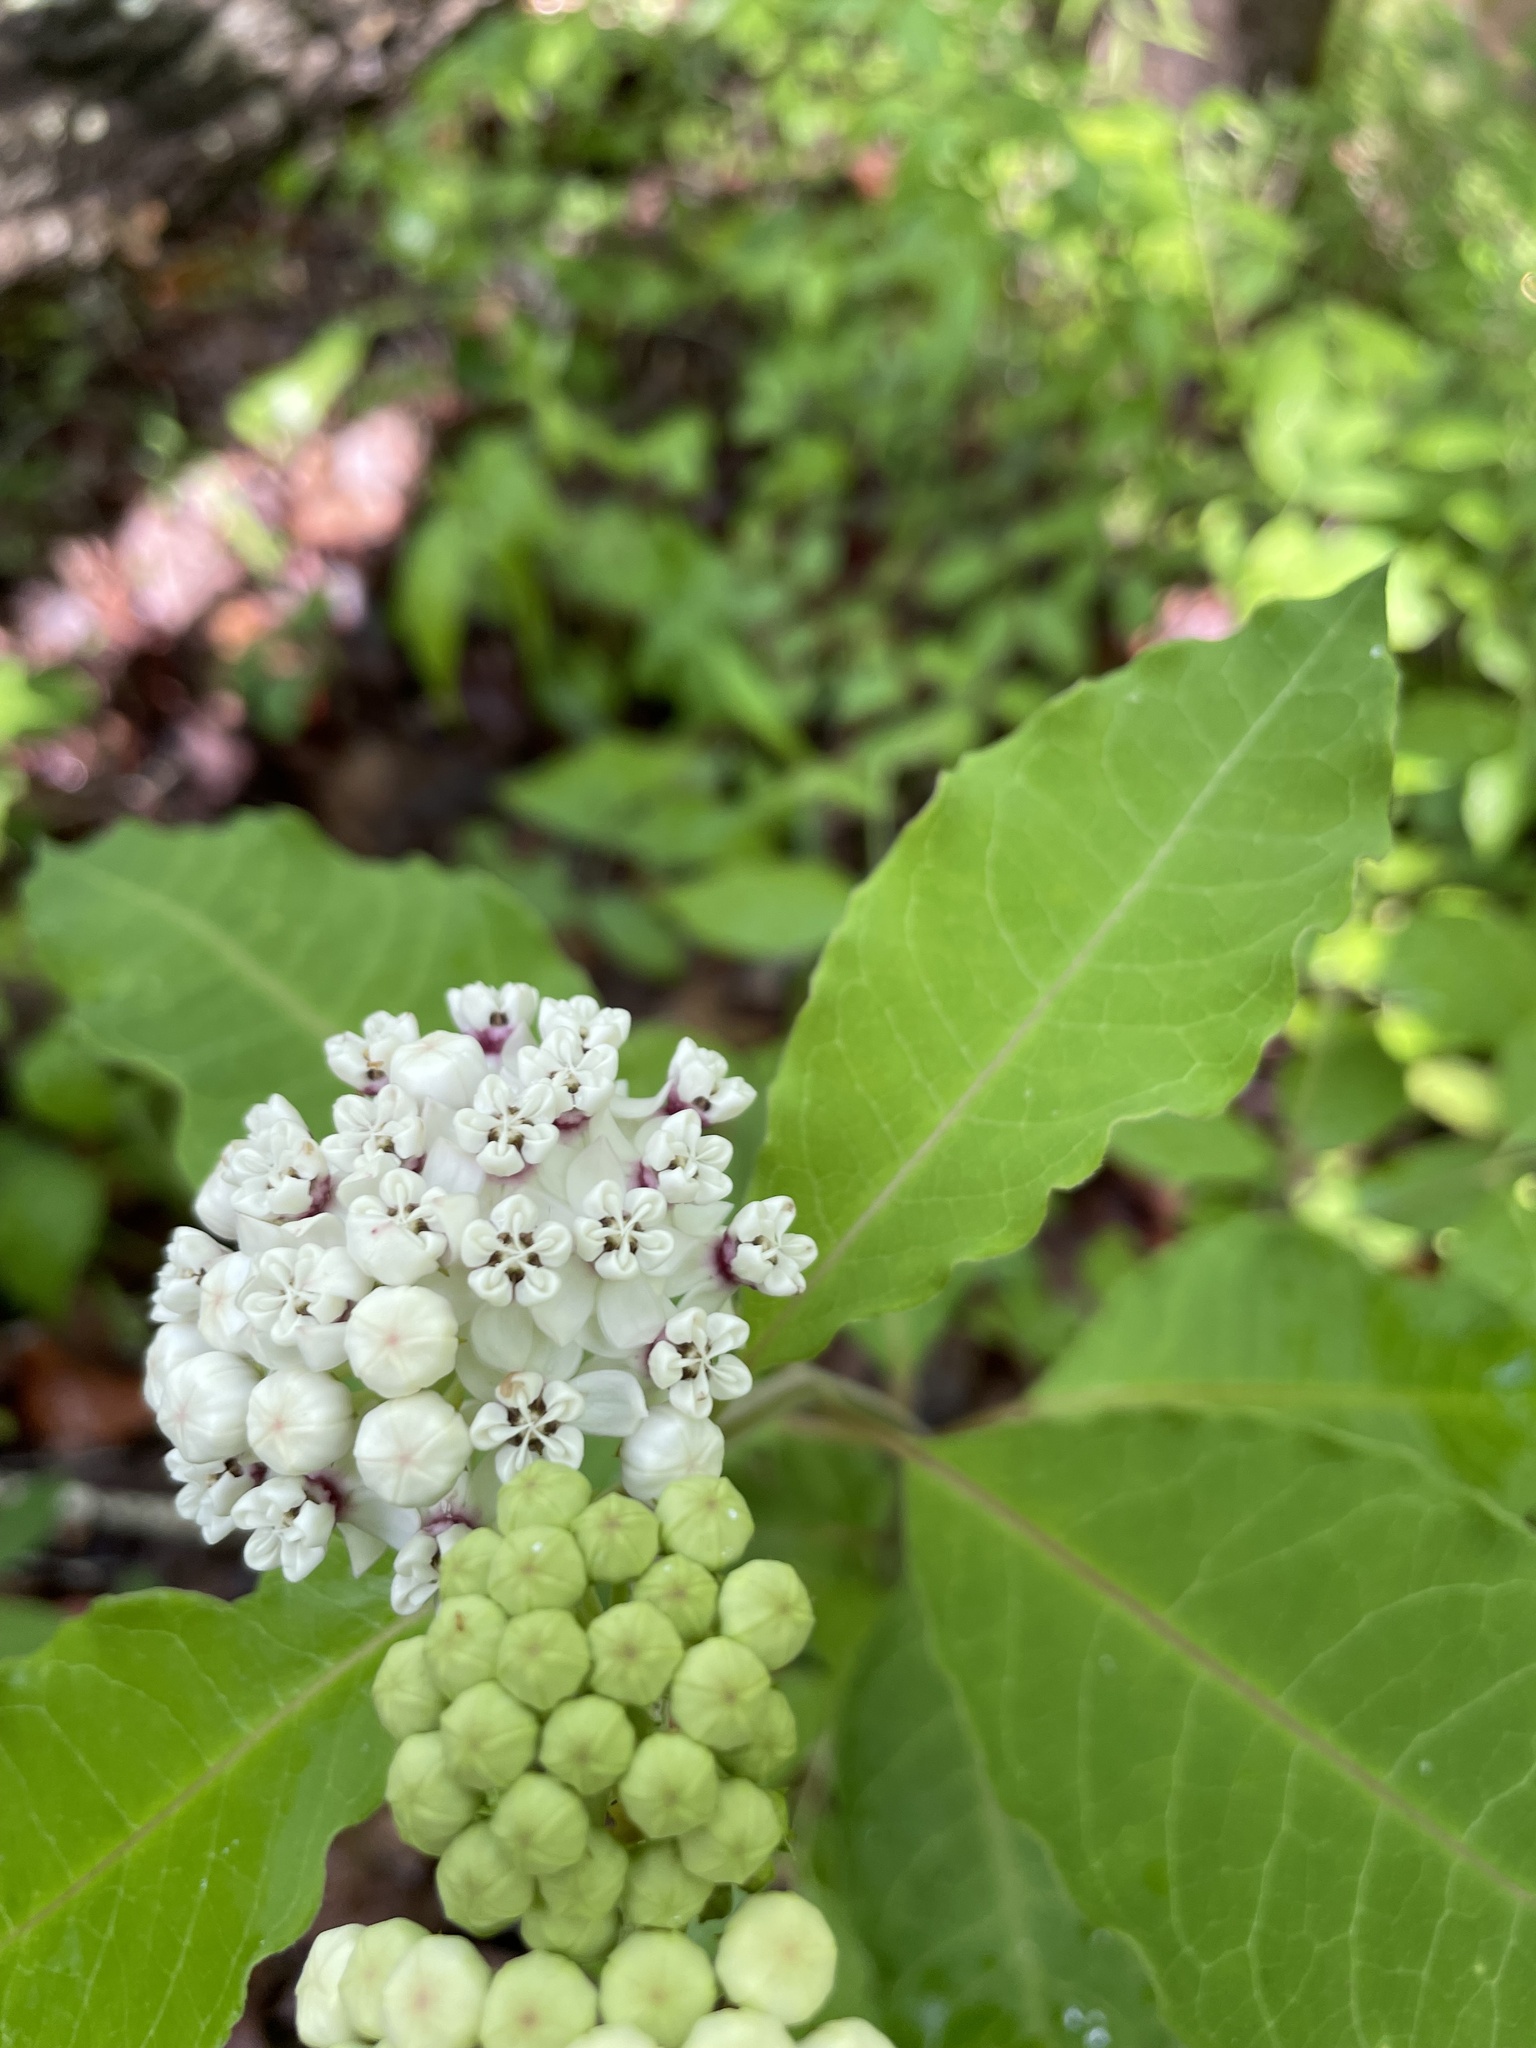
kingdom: Plantae
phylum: Tracheophyta
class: Magnoliopsida
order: Gentianales
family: Apocynaceae
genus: Asclepias
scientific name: Asclepias variegata
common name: Variegated milkweed
